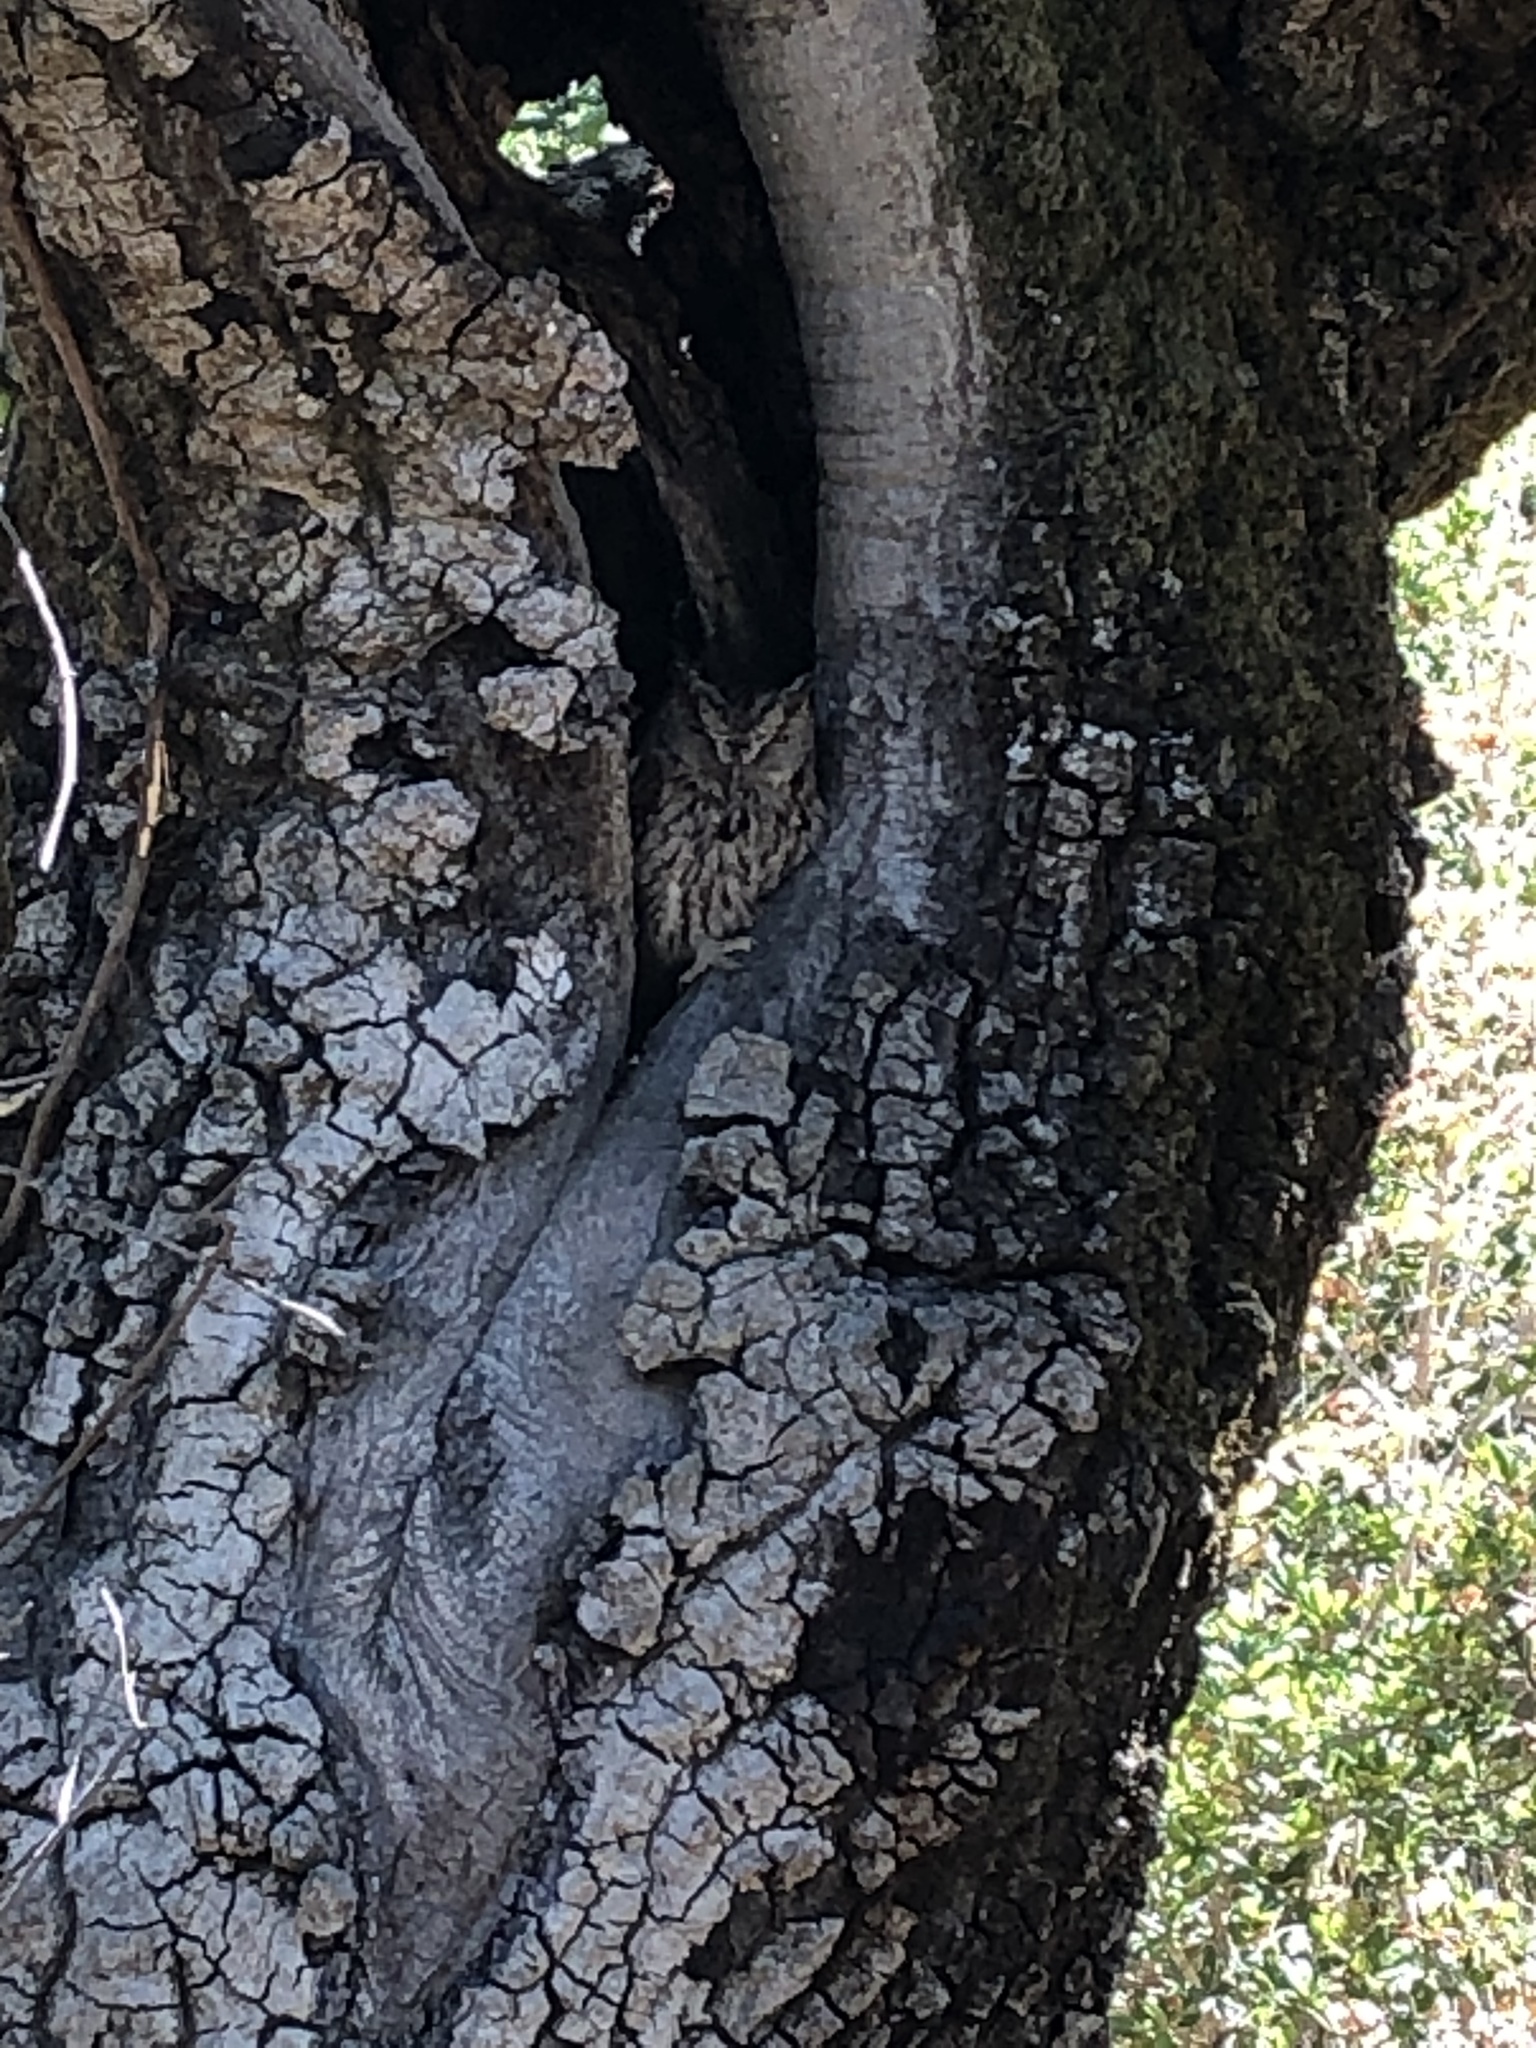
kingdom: Animalia
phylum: Chordata
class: Aves
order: Strigiformes
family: Strigidae
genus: Megascops
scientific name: Megascops kennicottii
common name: Western screech-owl
